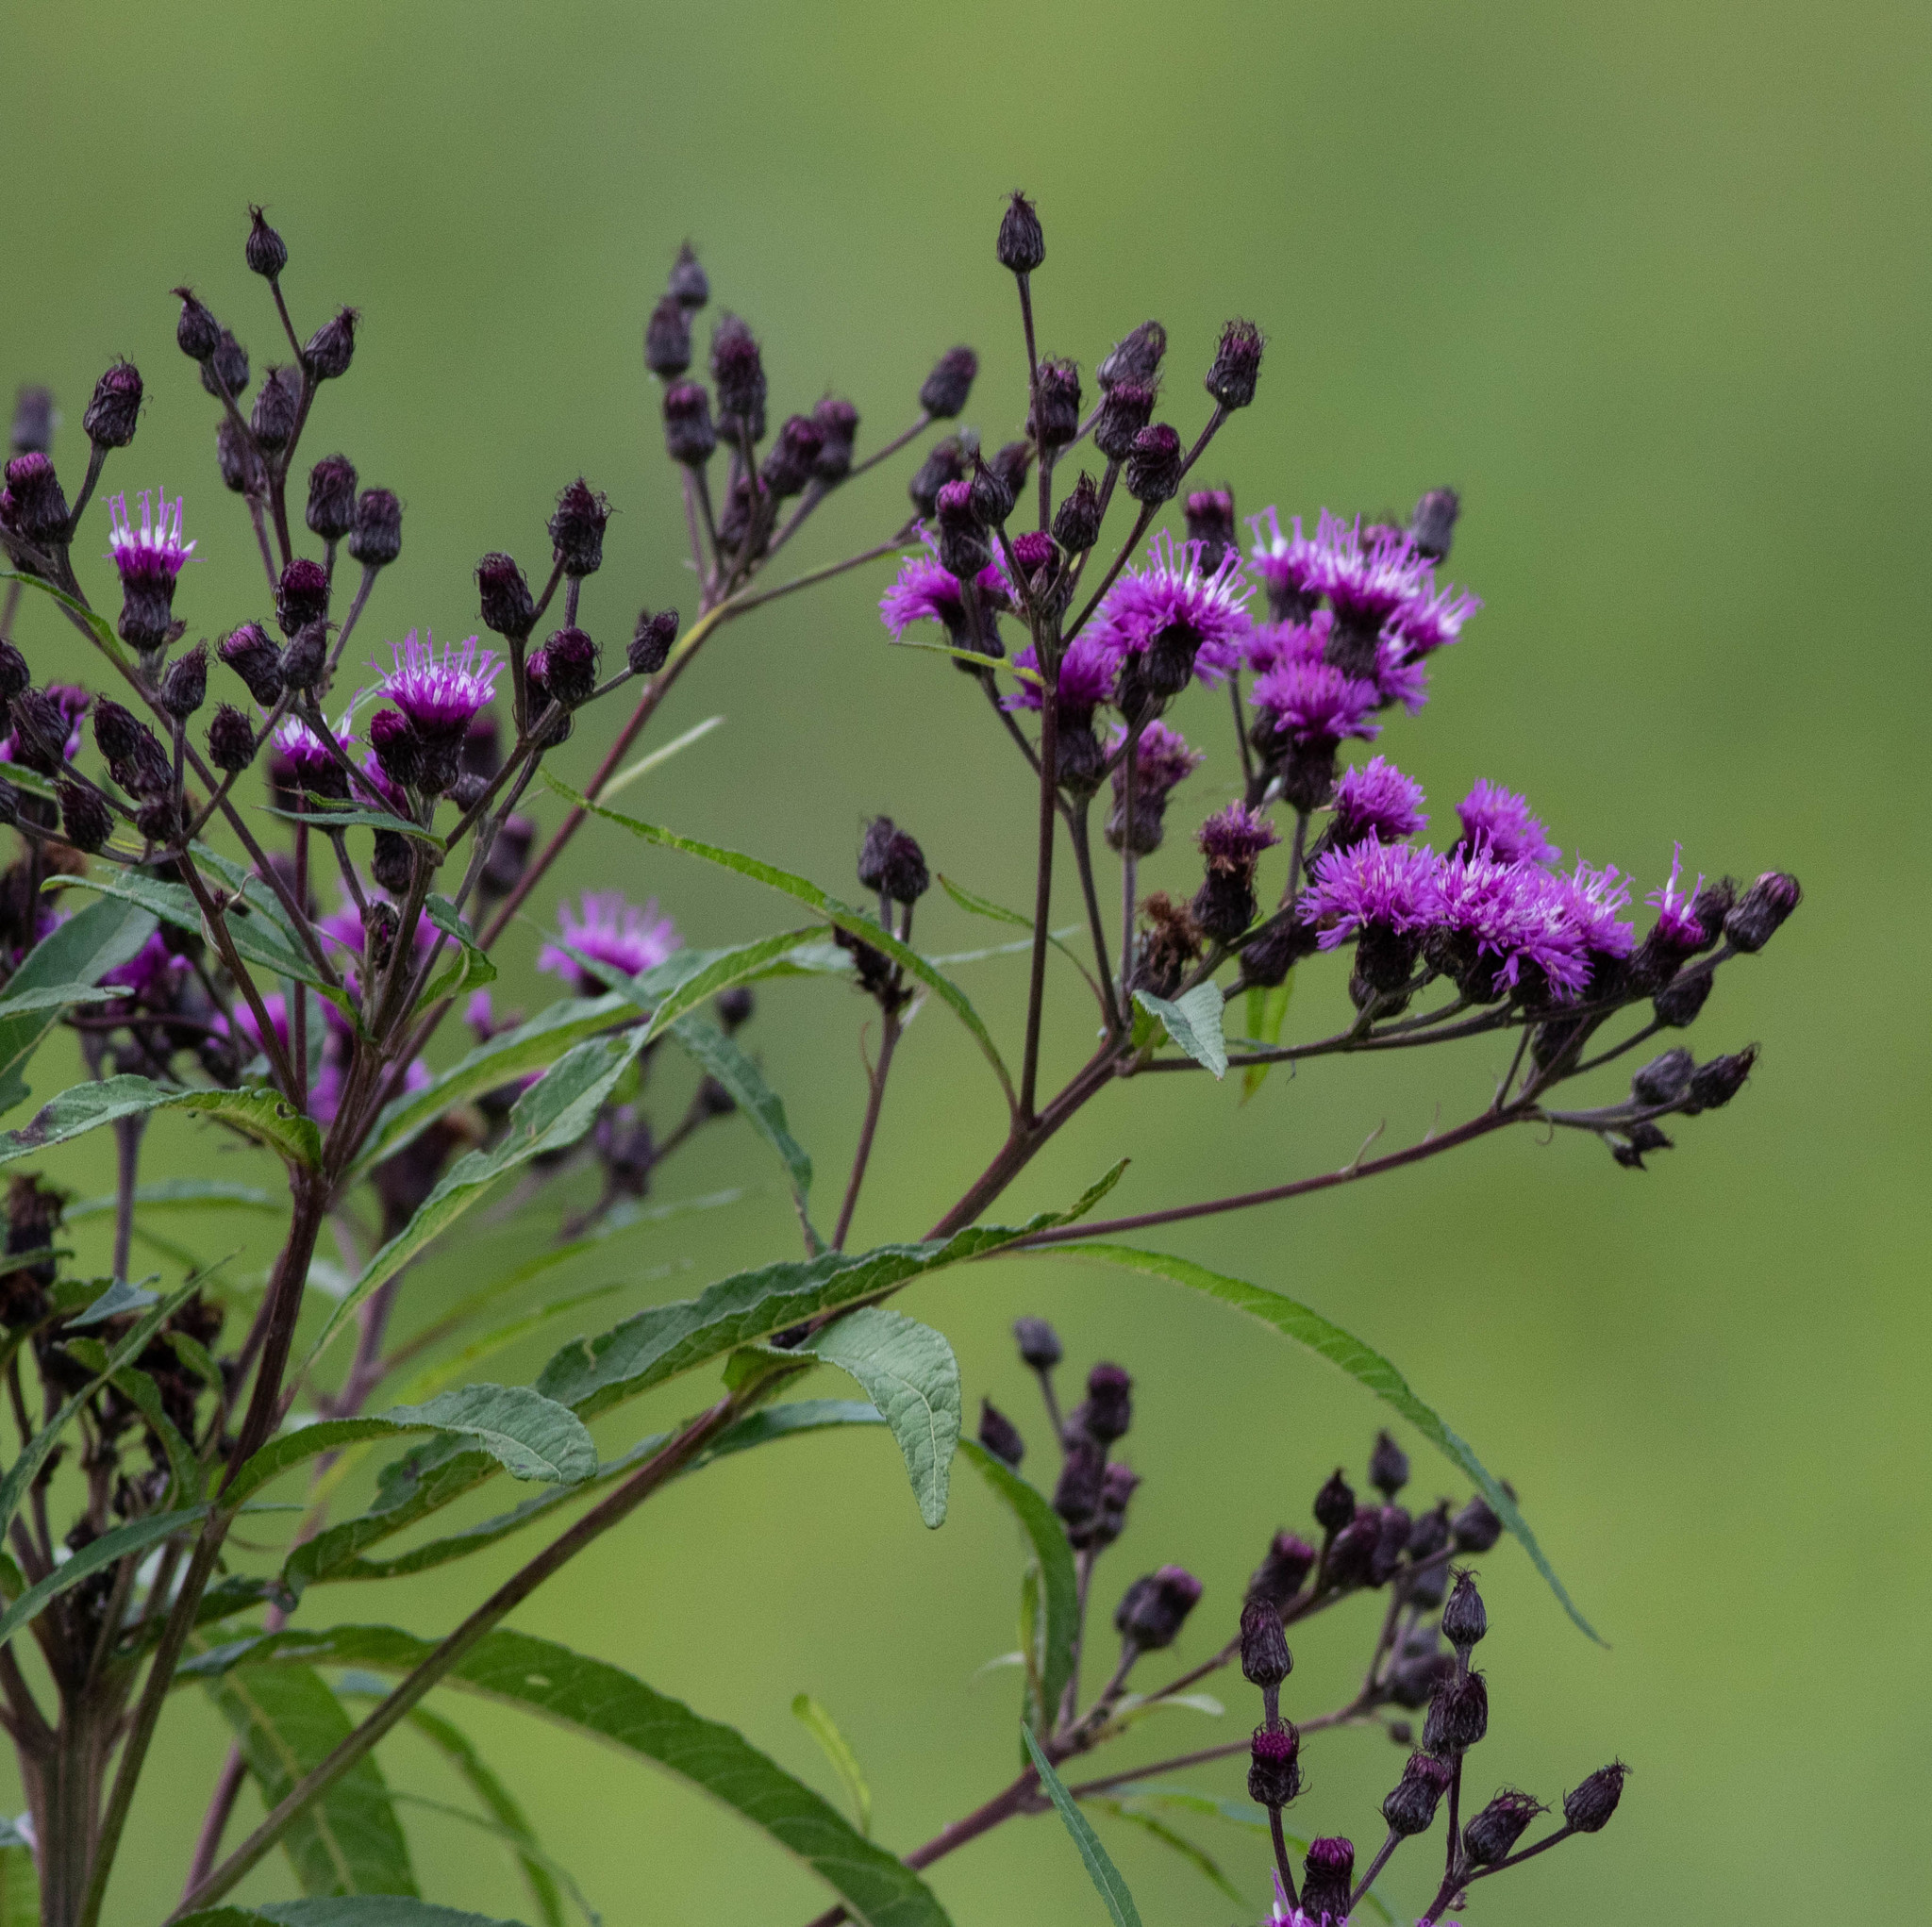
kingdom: Plantae
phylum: Tracheophyta
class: Magnoliopsida
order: Asterales
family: Asteraceae
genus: Vernonia
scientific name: Vernonia noveboracensis
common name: New york ironweed
